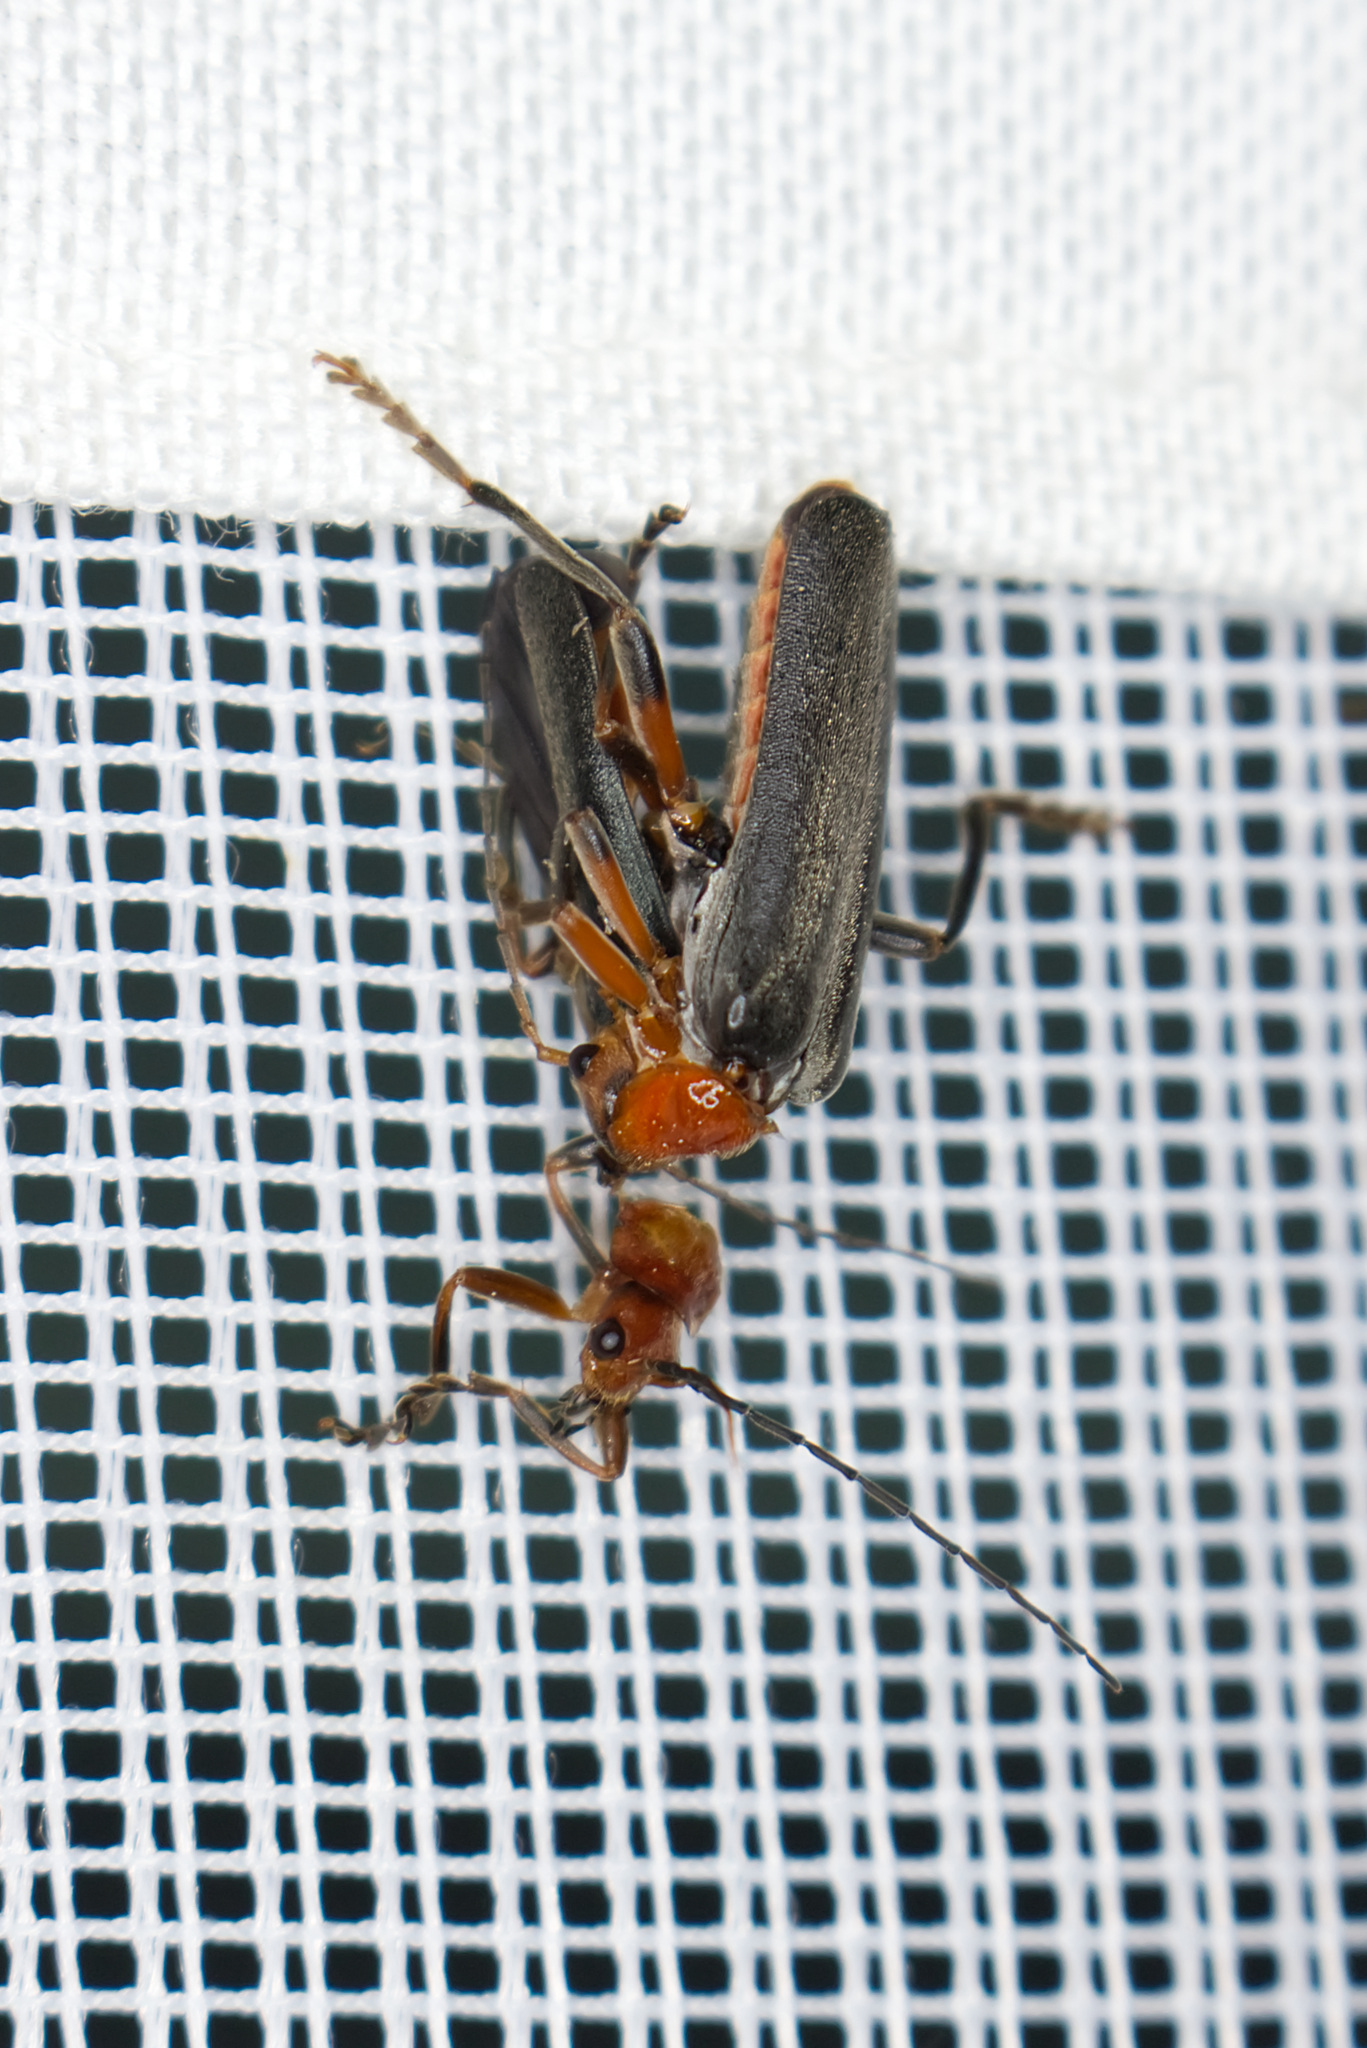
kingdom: Animalia
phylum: Arthropoda
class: Insecta
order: Coleoptera
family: Cantharidae
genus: Cantharis
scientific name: Cantharis livida
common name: Livid soldier beetle
